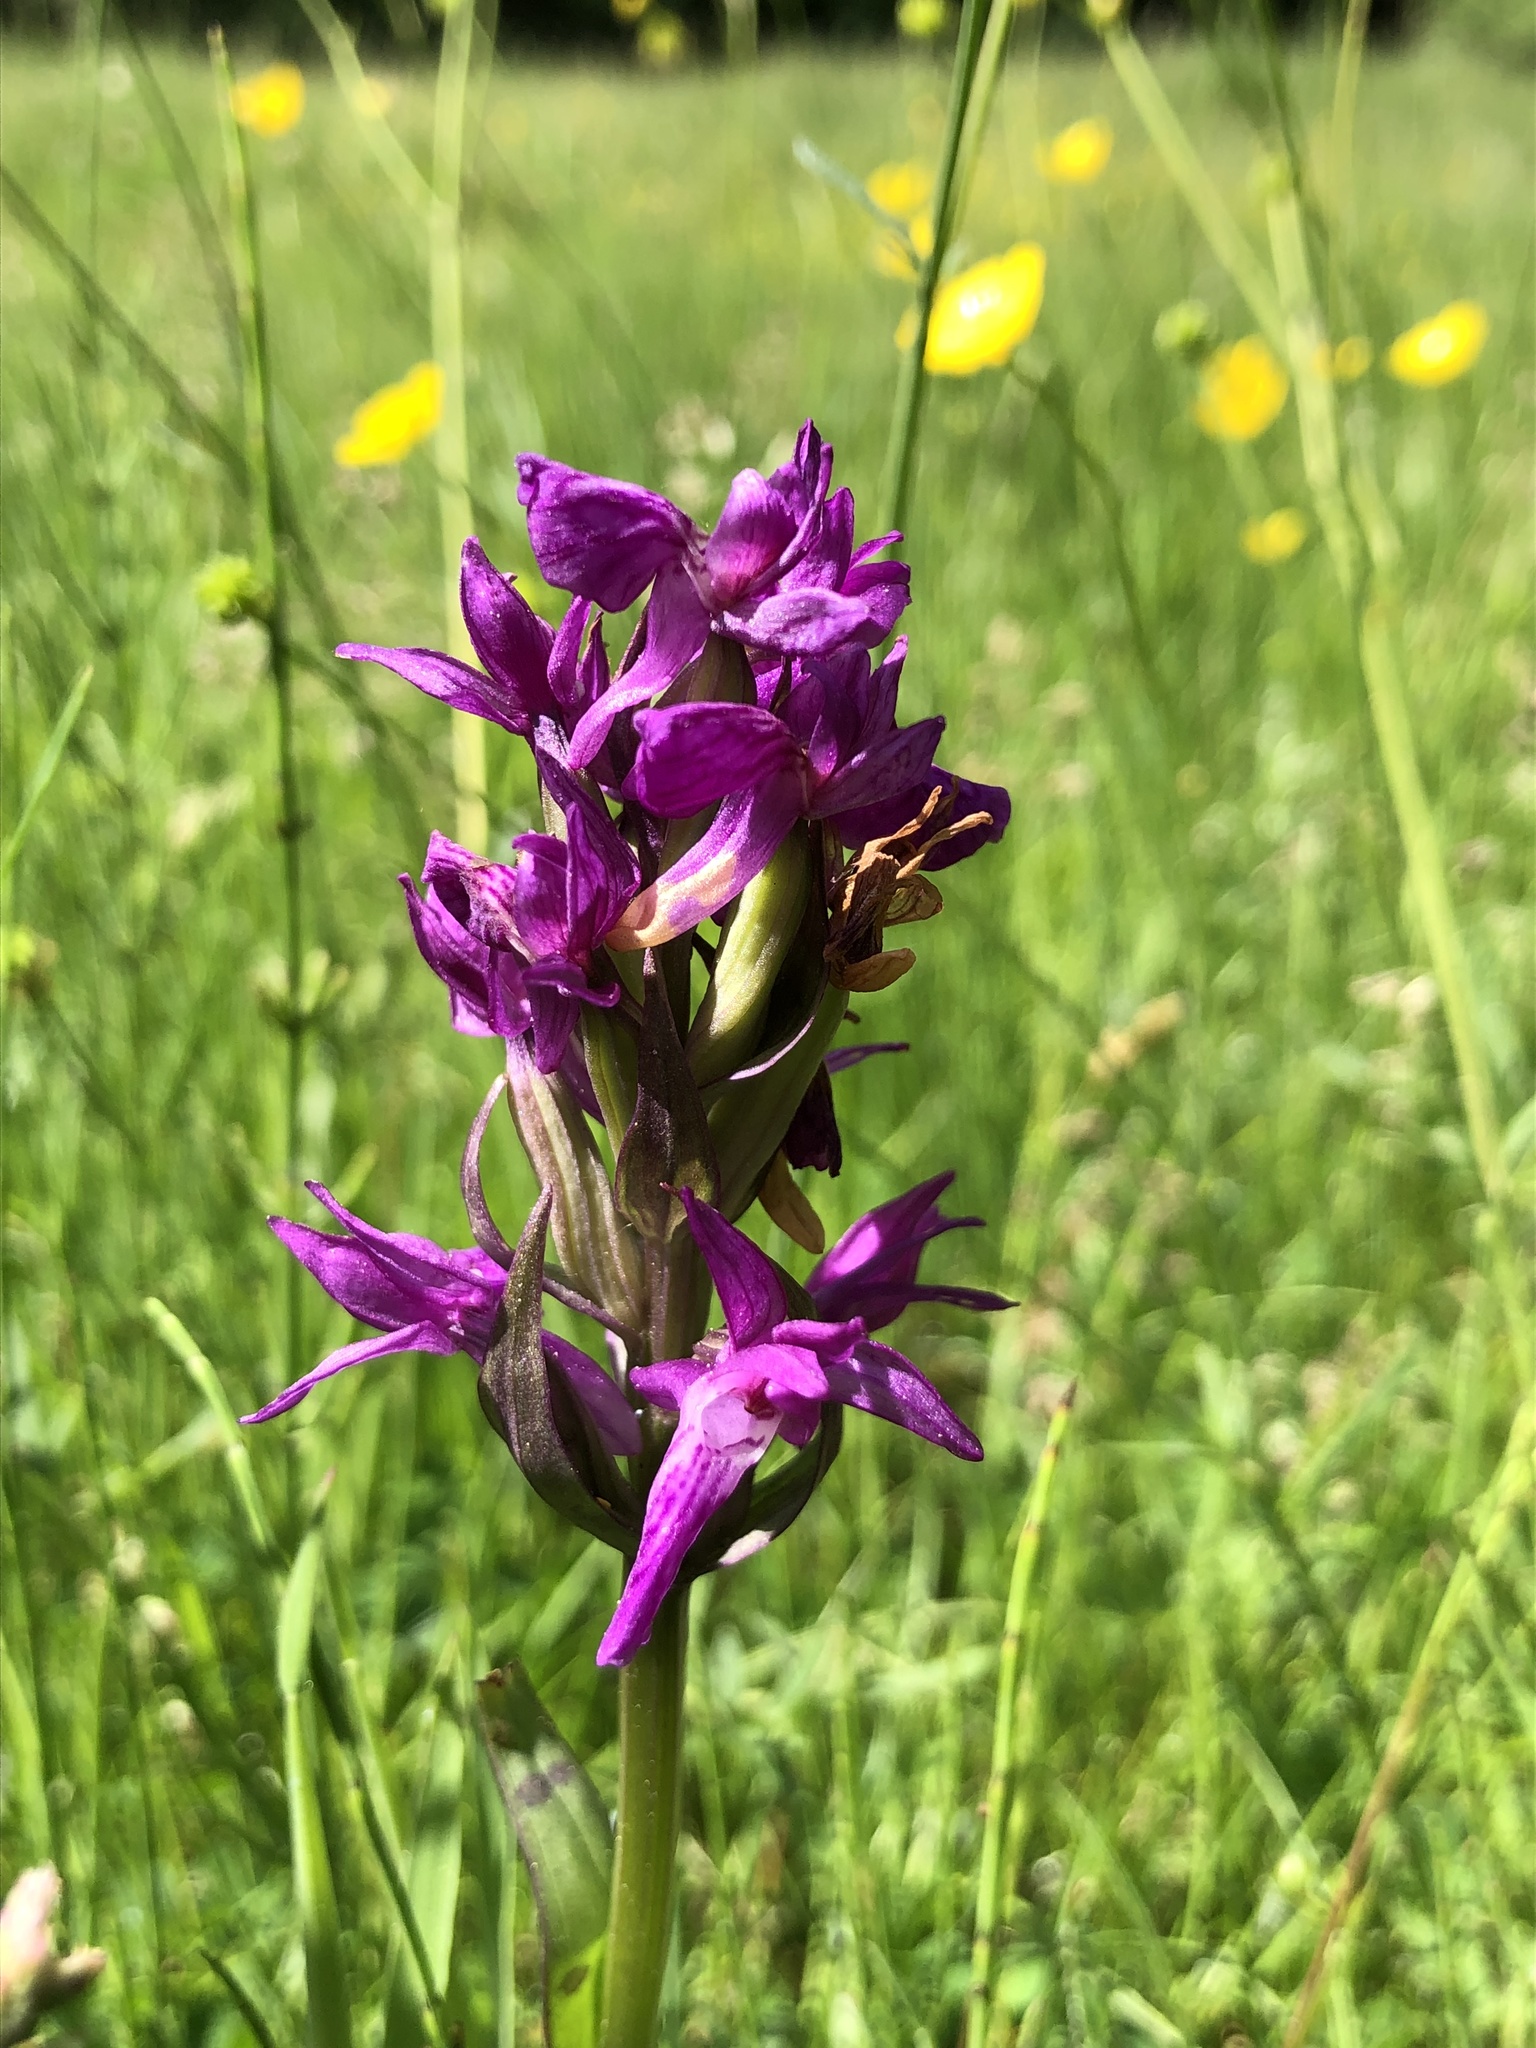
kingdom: Plantae
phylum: Tracheophyta
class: Liliopsida
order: Asparagales
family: Orchidaceae
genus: Dactylorhiza
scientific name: Dactylorhiza majalis
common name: Marsh orchid
